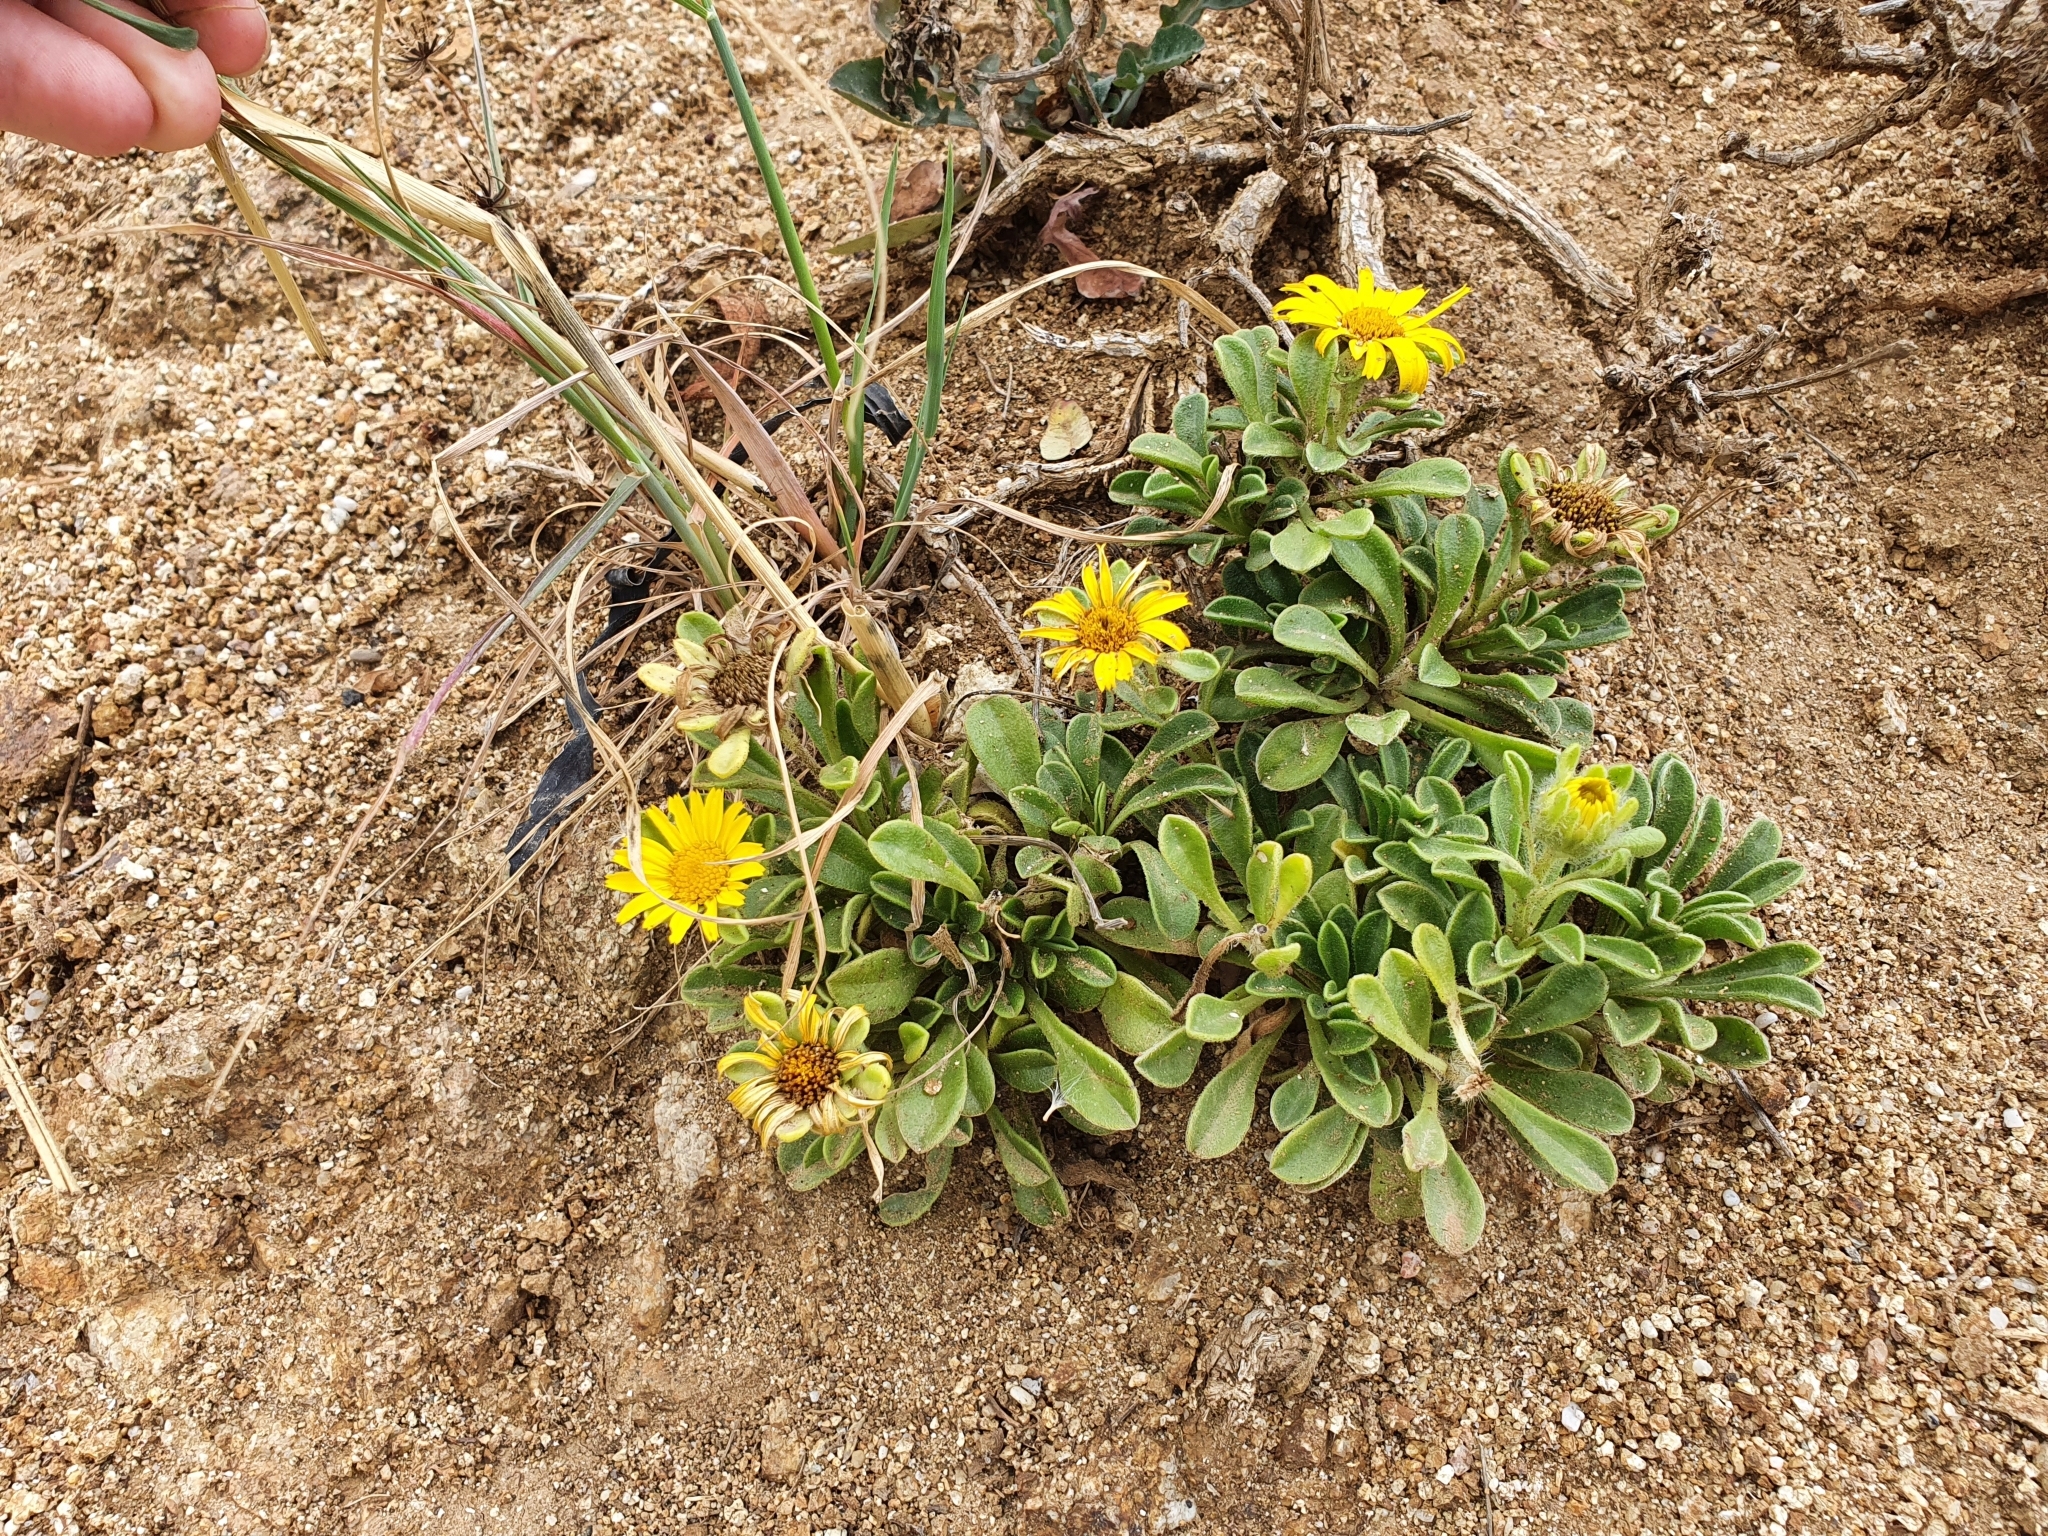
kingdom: Plantae
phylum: Tracheophyta
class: Magnoliopsida
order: Asterales
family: Asteraceae
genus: Pallenis
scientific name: Pallenis maritima
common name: Golden coin daisy
